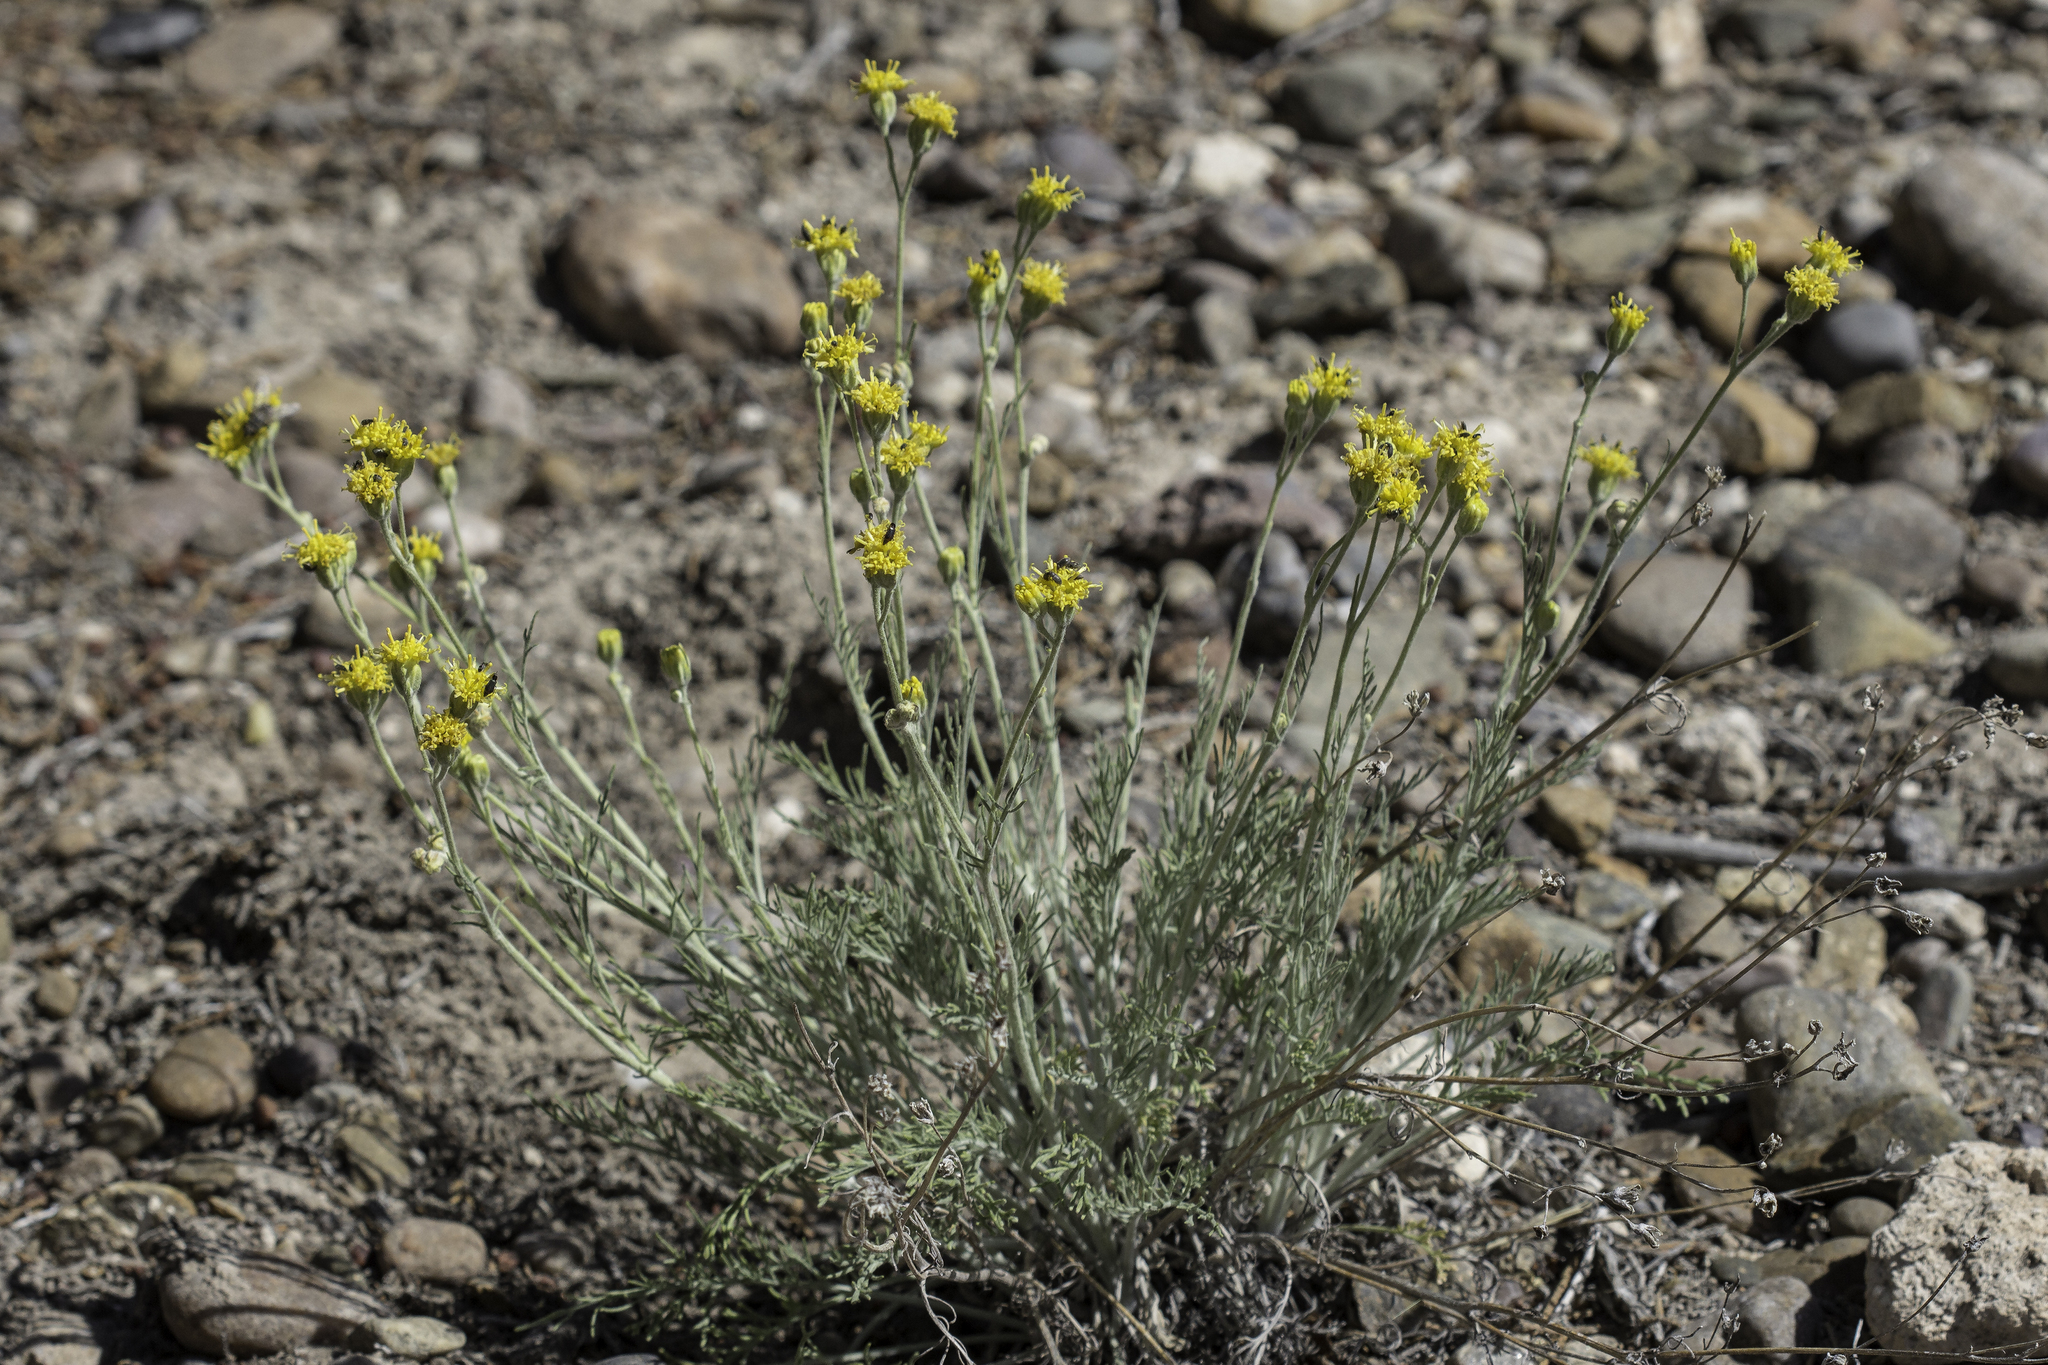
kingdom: Plantae
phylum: Tracheophyta
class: Magnoliopsida
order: Asterales
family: Asteraceae
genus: Hymenopappus
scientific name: Hymenopappus filifolius
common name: Columbia cutleaf
